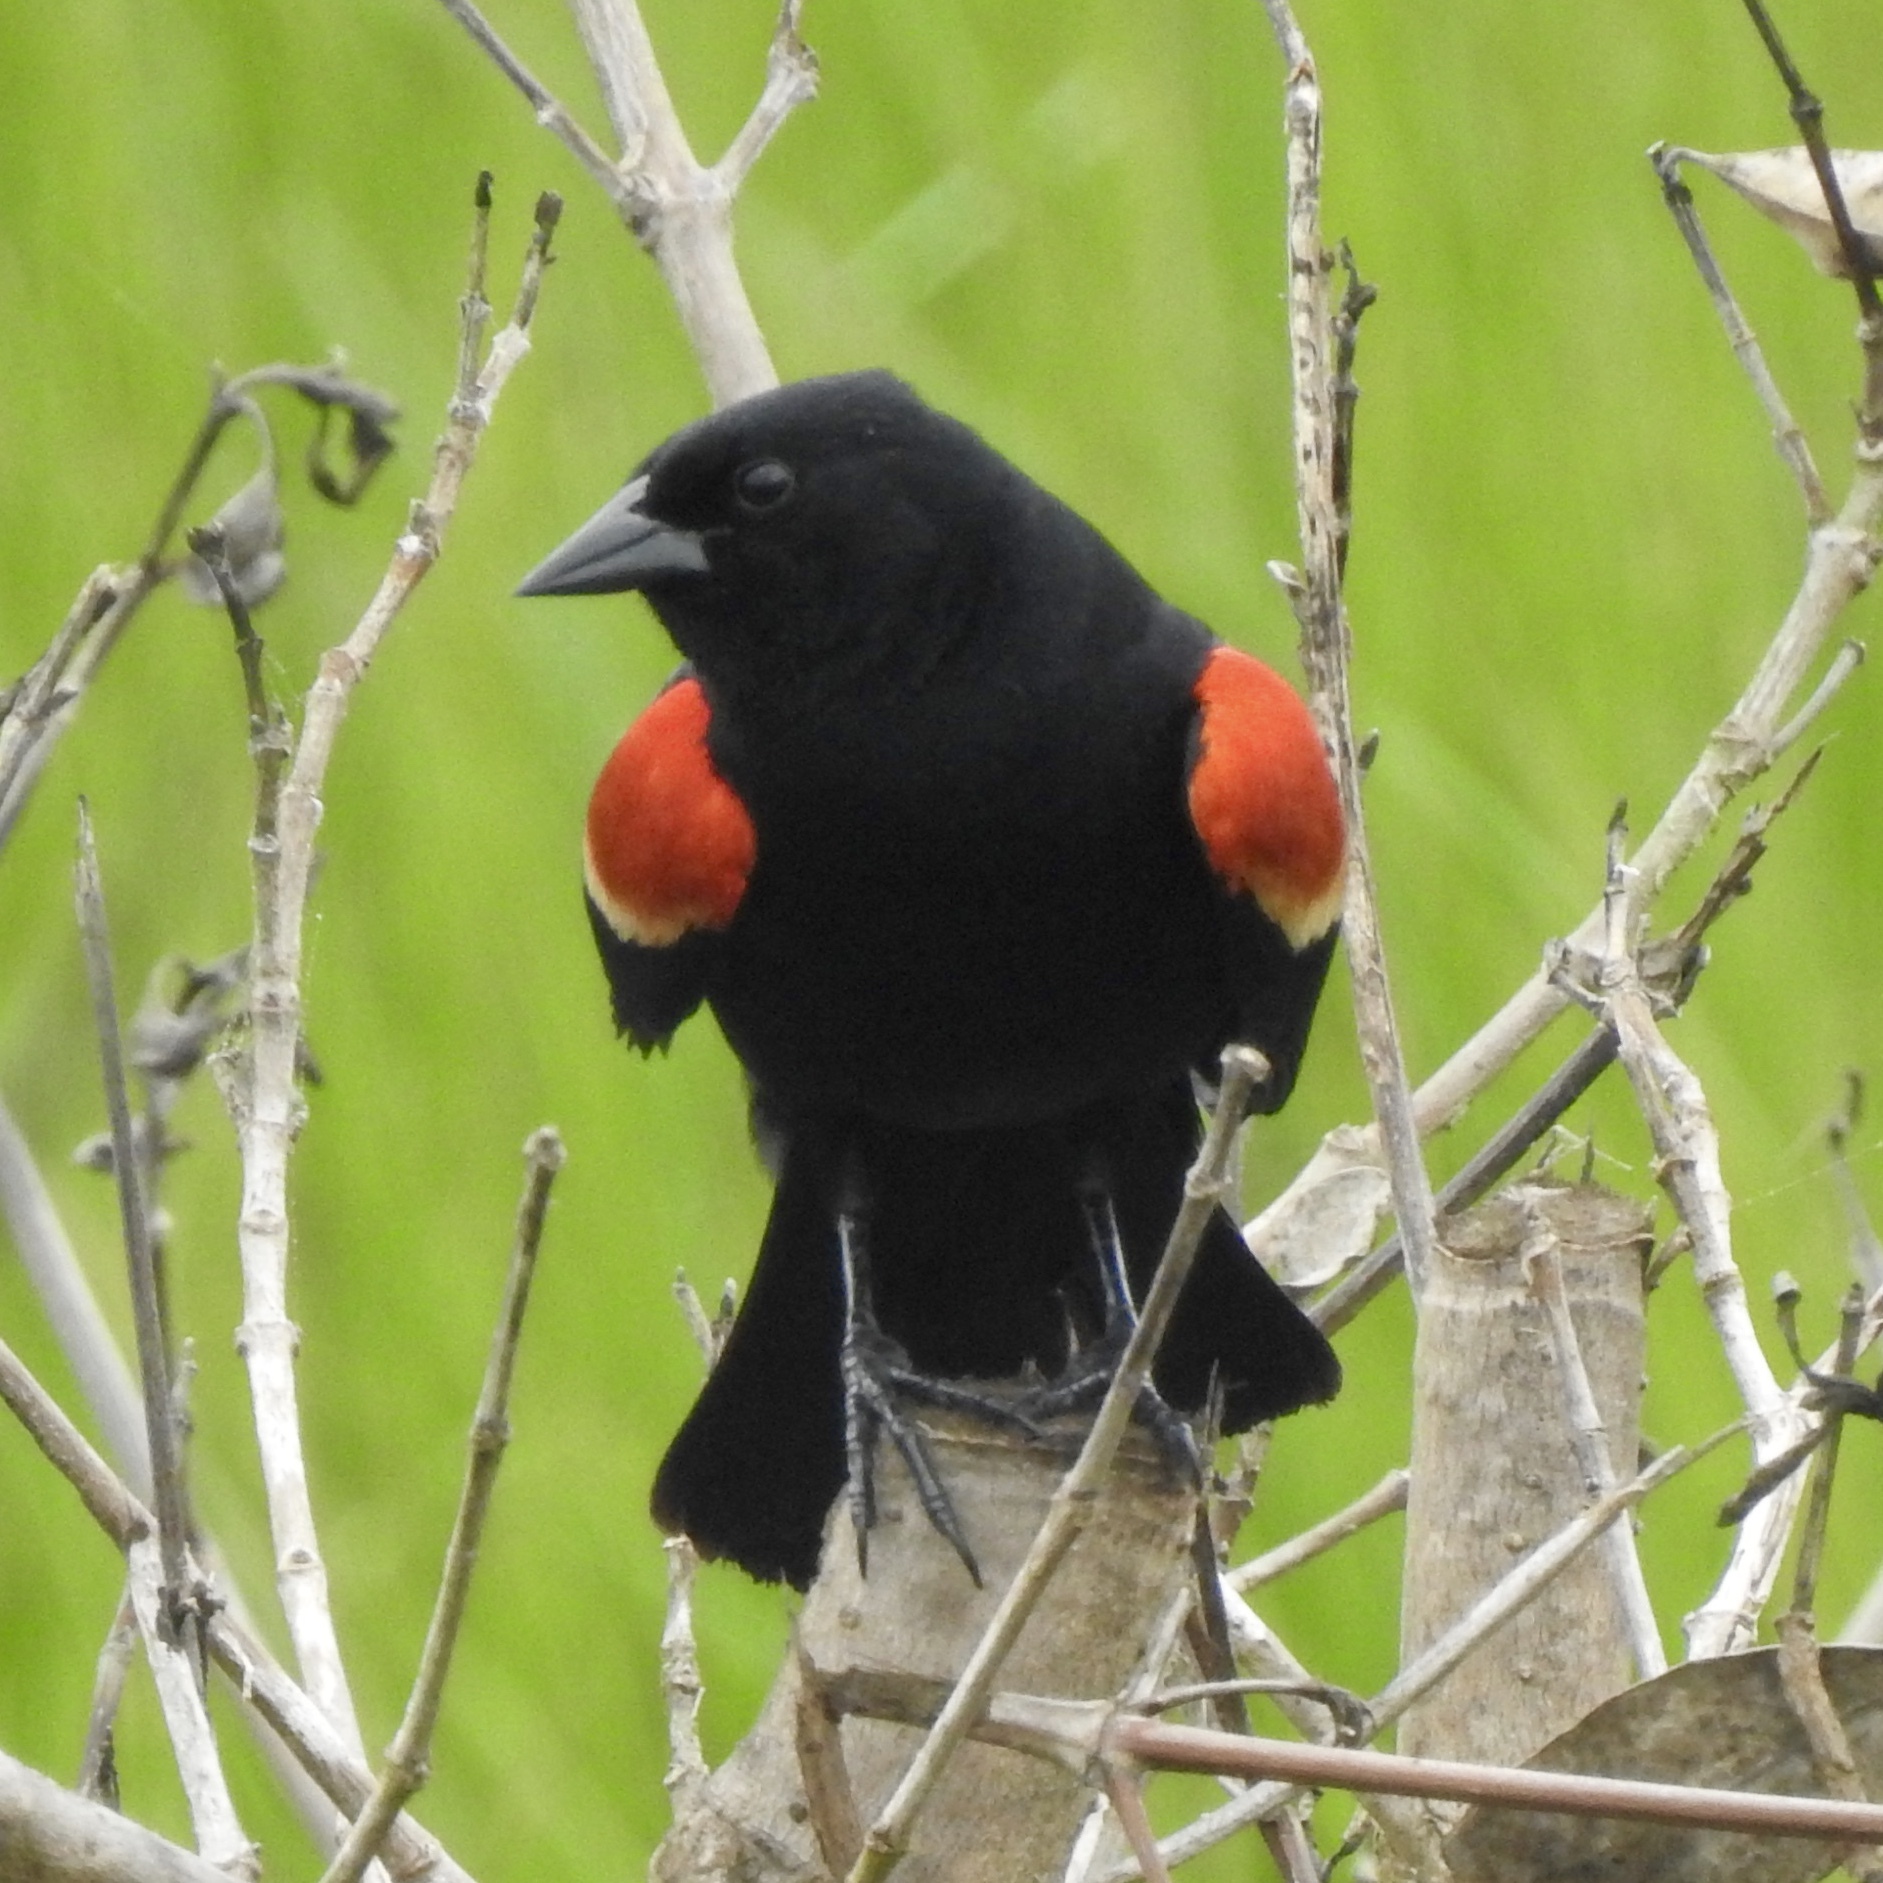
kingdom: Animalia
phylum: Chordata
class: Aves
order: Passeriformes
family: Icteridae
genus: Agelaius
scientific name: Agelaius phoeniceus
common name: Red-winged blackbird
